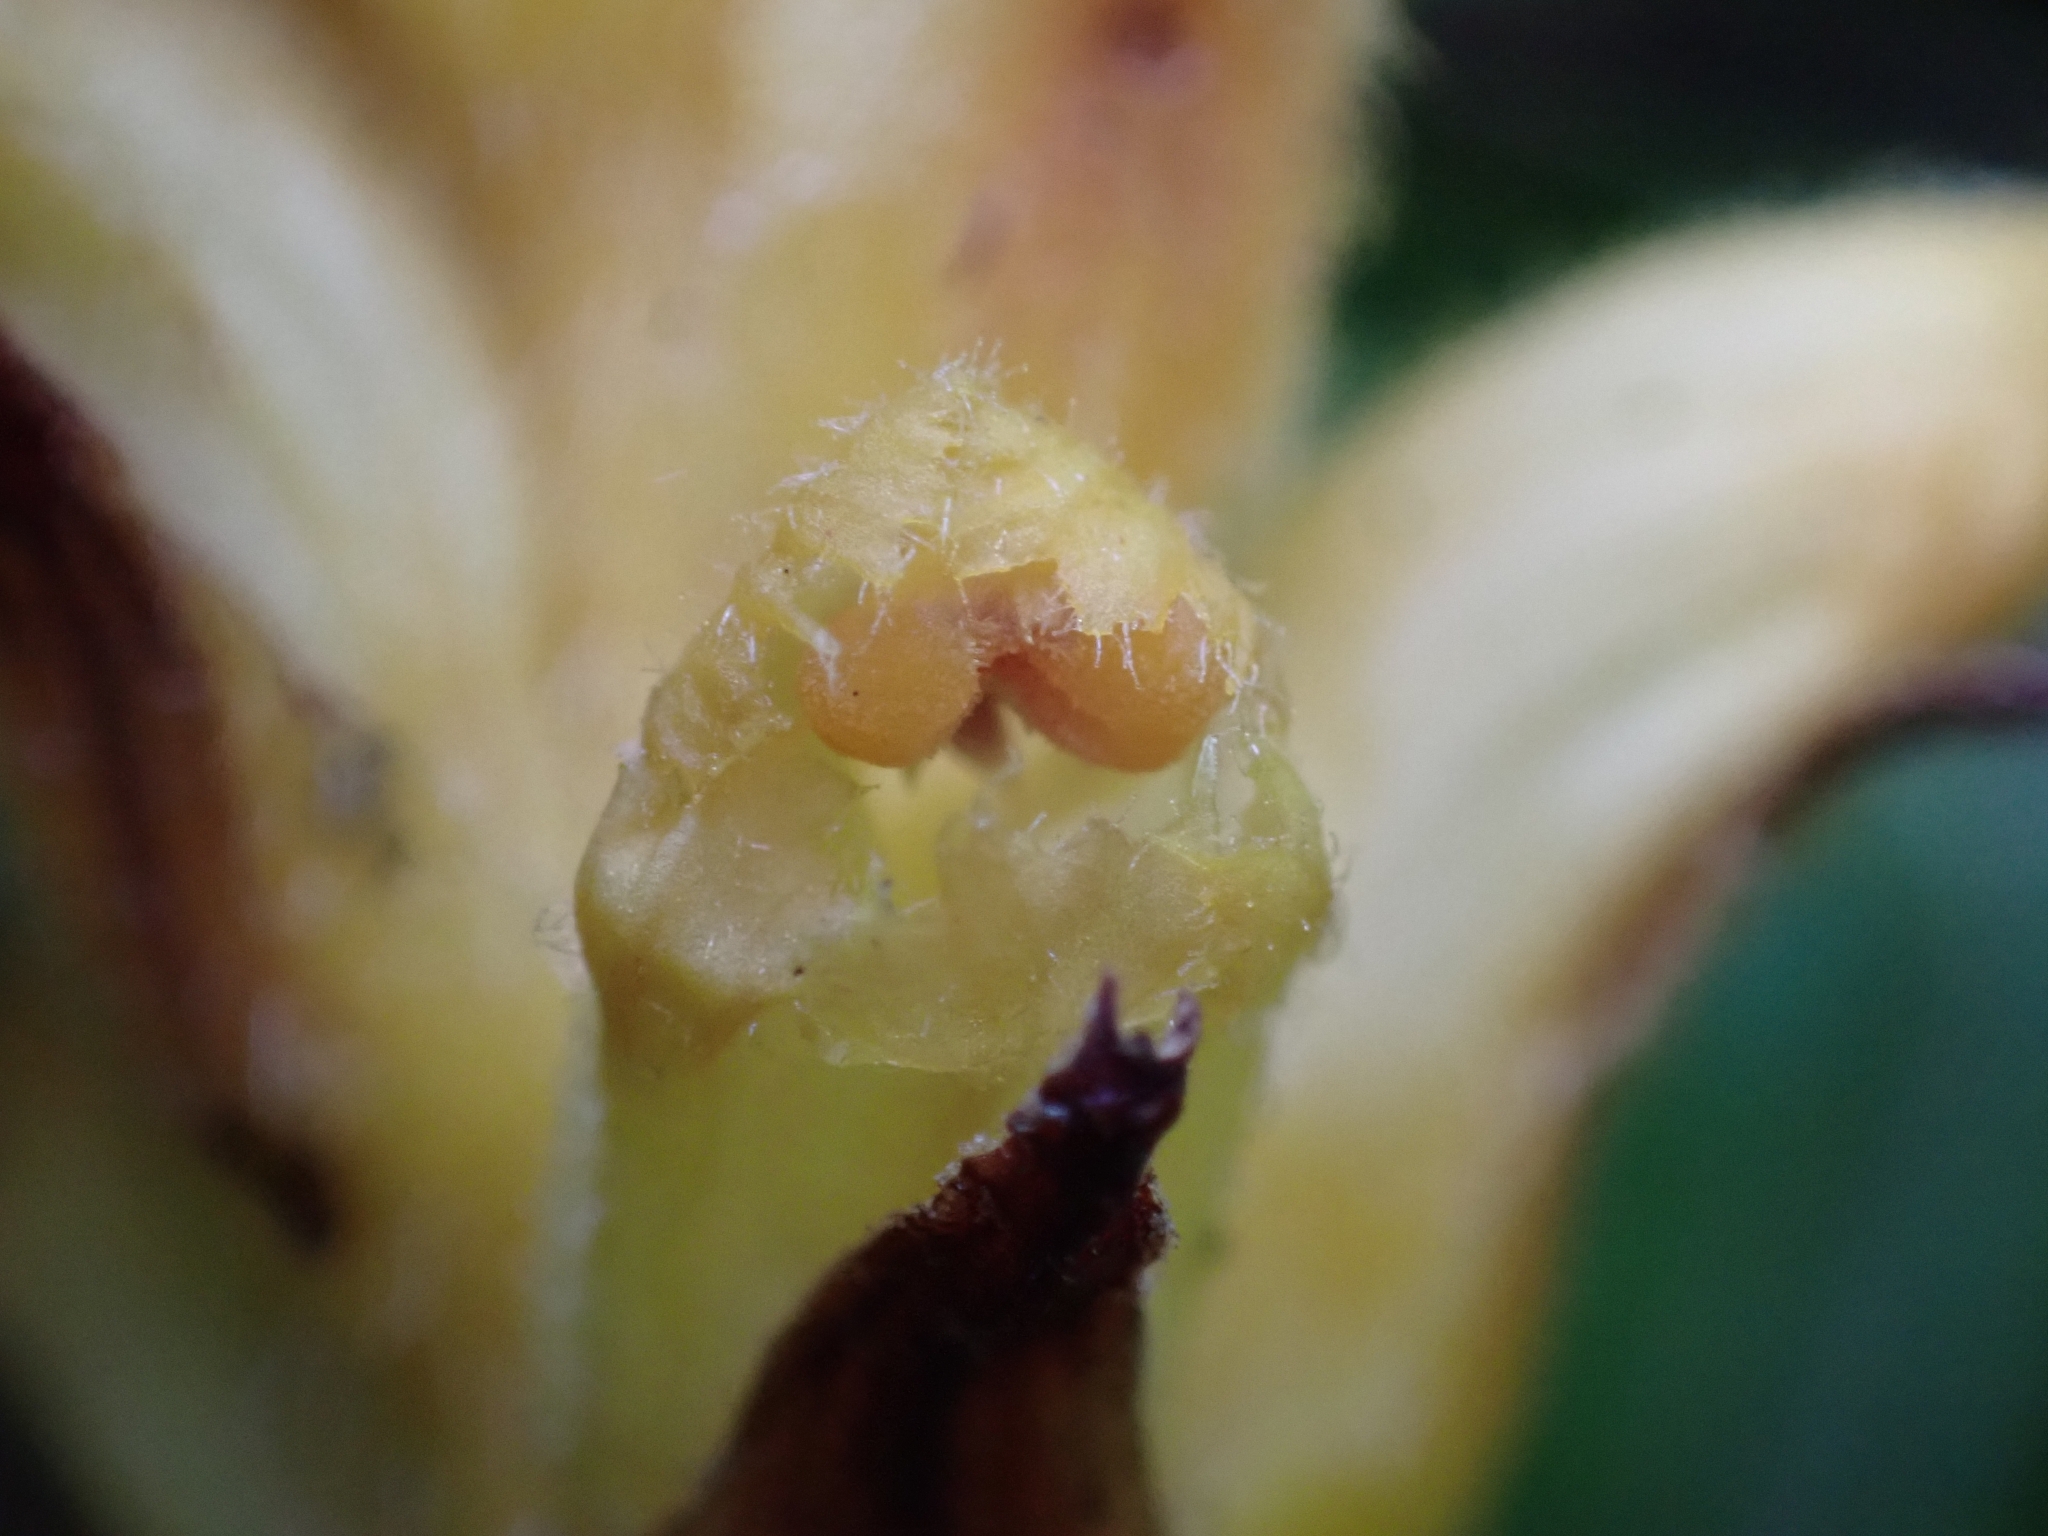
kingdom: Plantae
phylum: Tracheophyta
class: Magnoliopsida
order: Lamiales
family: Orobanchaceae
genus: Orobanche
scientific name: Orobanche salviae
